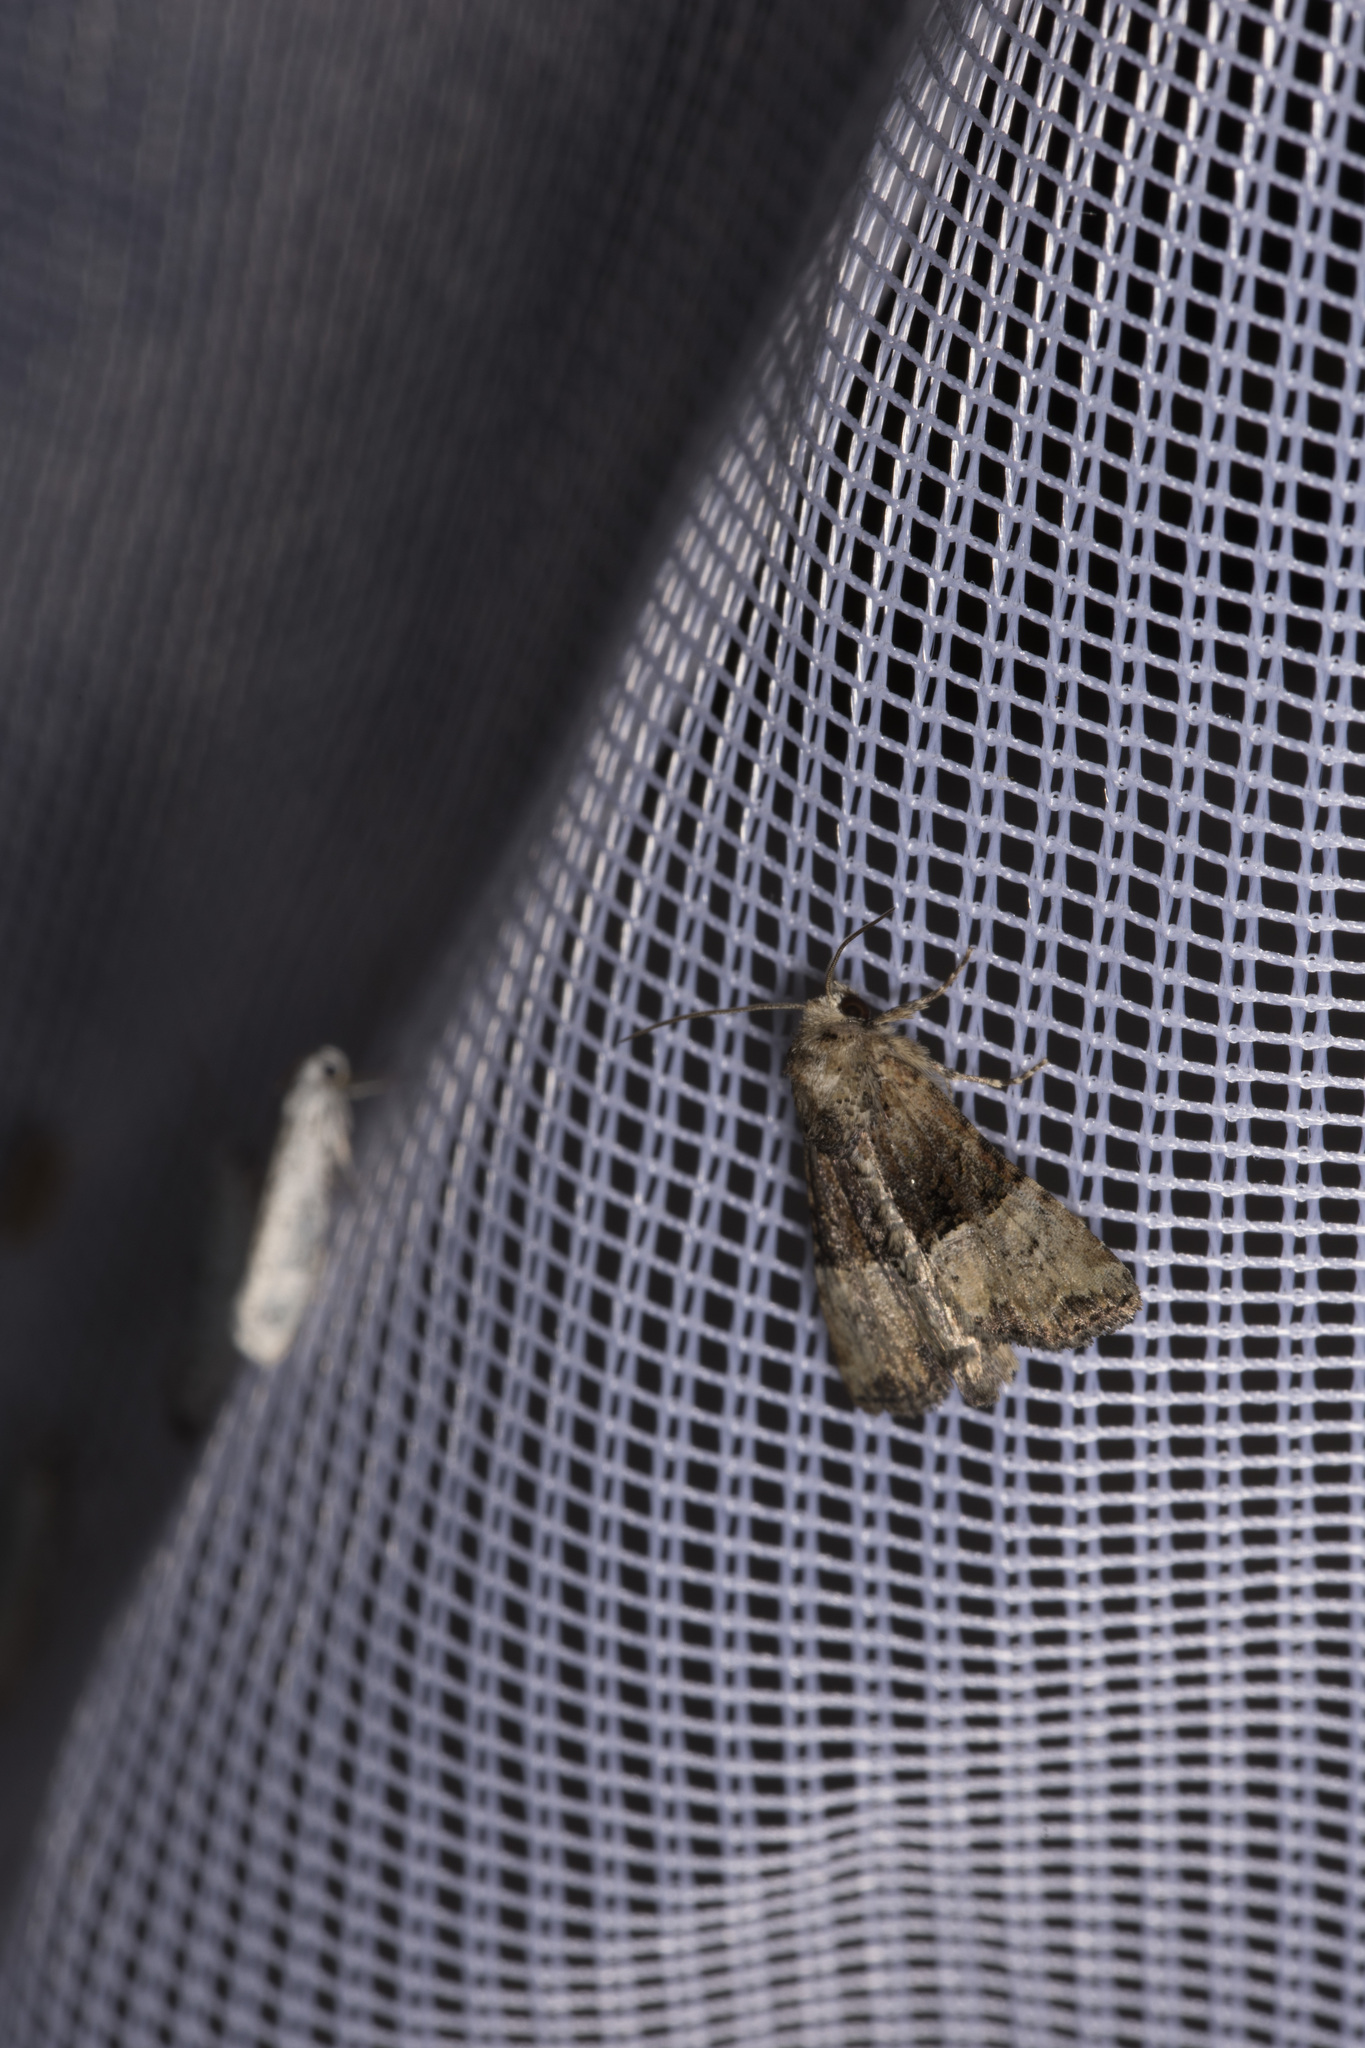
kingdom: Animalia
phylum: Arthropoda
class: Insecta
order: Lepidoptera
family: Noctuidae
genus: Mesoligia
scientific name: Mesoligia furuncula
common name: Cloaked minor
